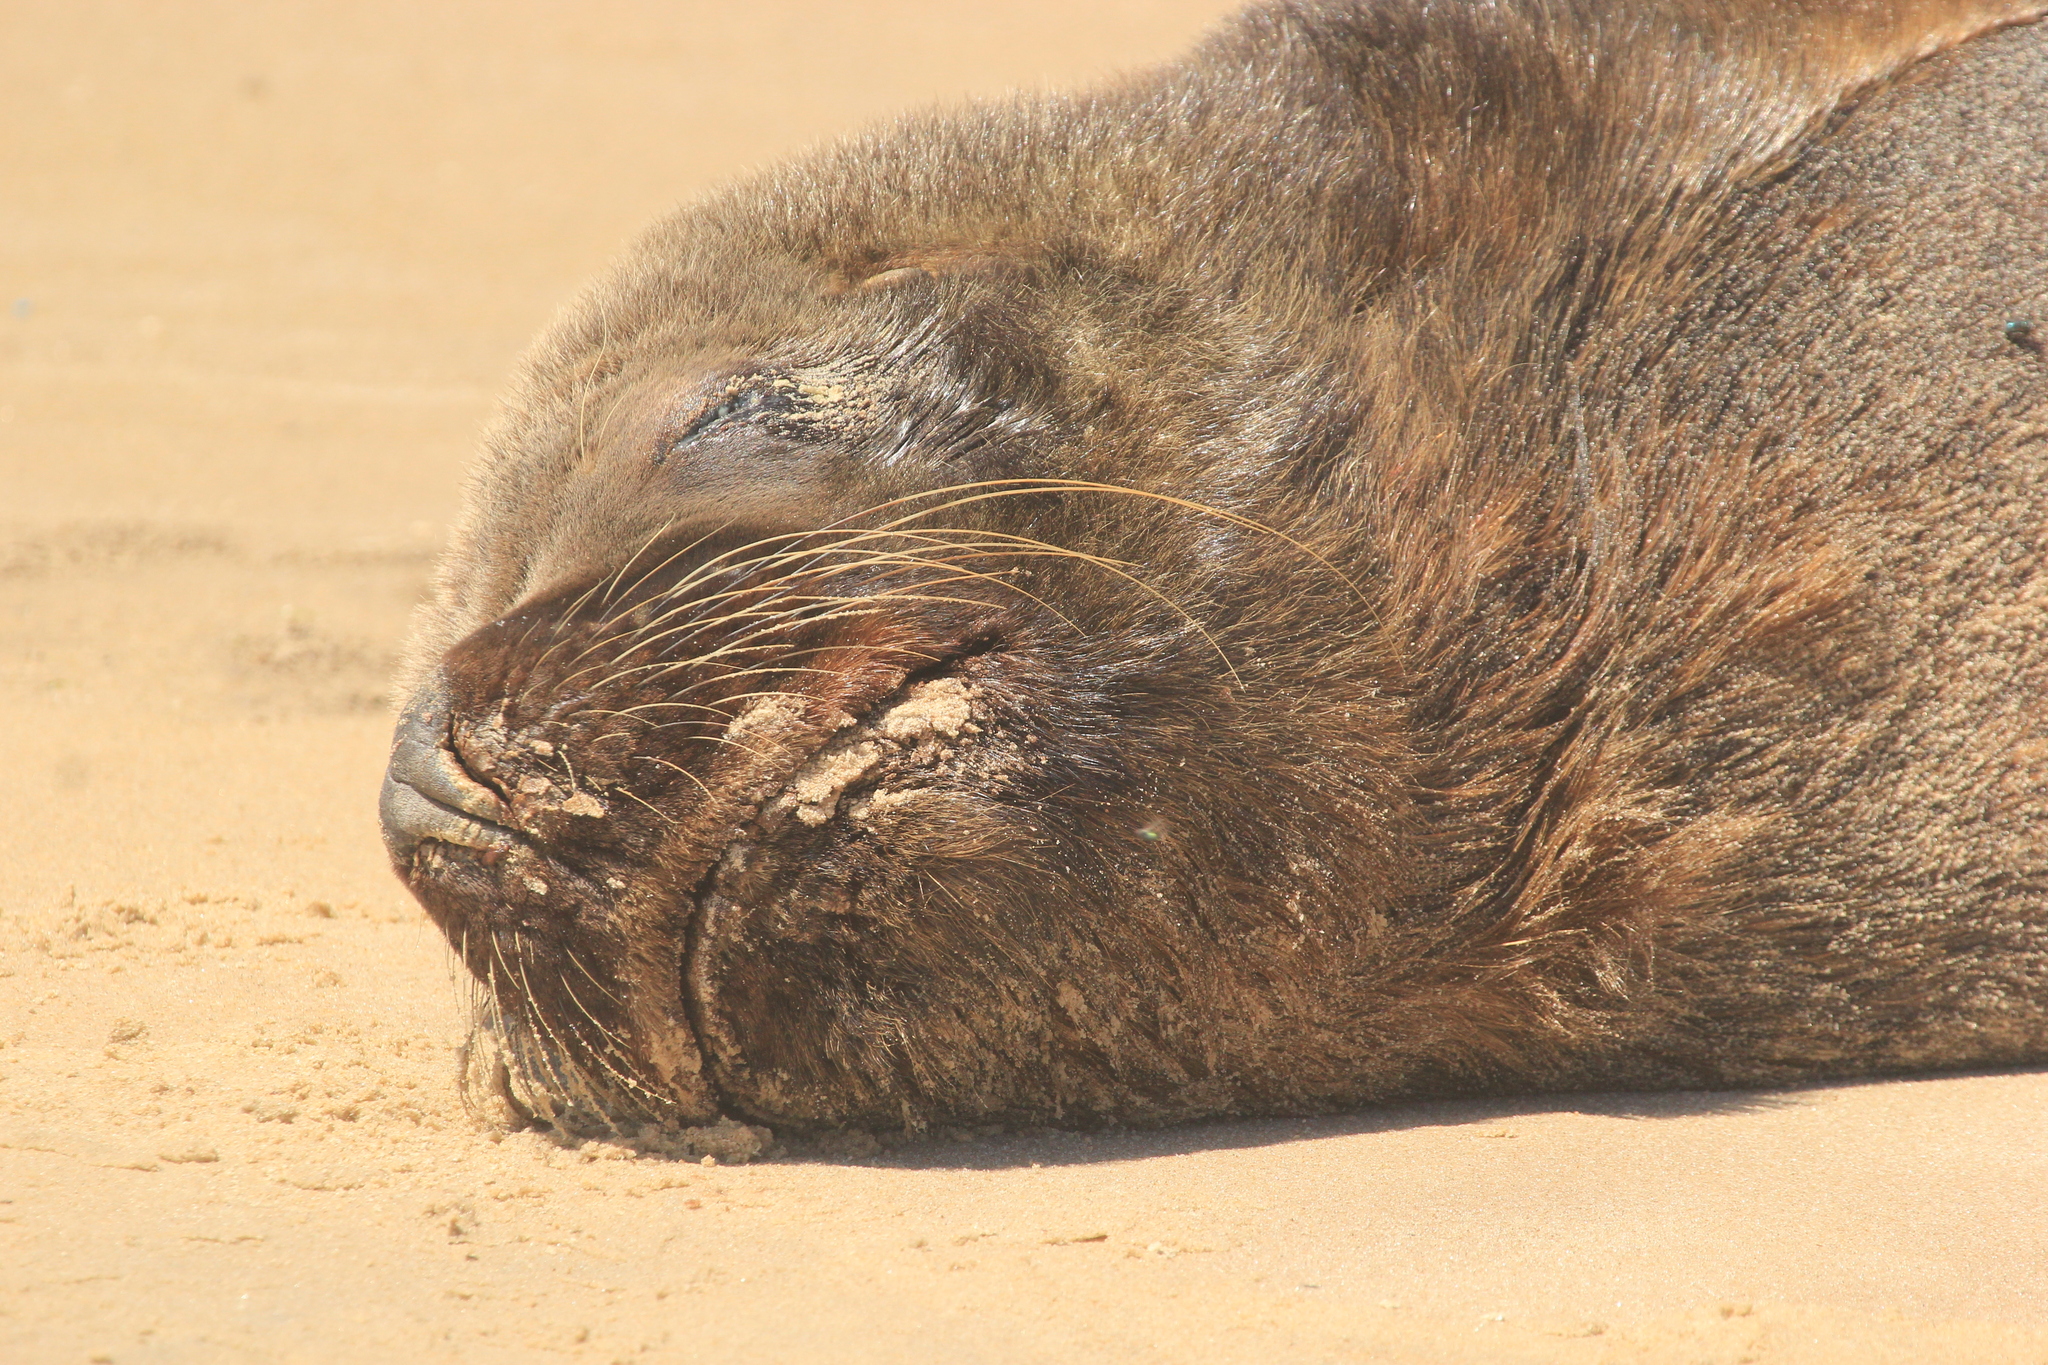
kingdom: Animalia
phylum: Chordata
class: Mammalia
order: Carnivora
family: Otariidae
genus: Otaria
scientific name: Otaria byronia
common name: South american sea lion
